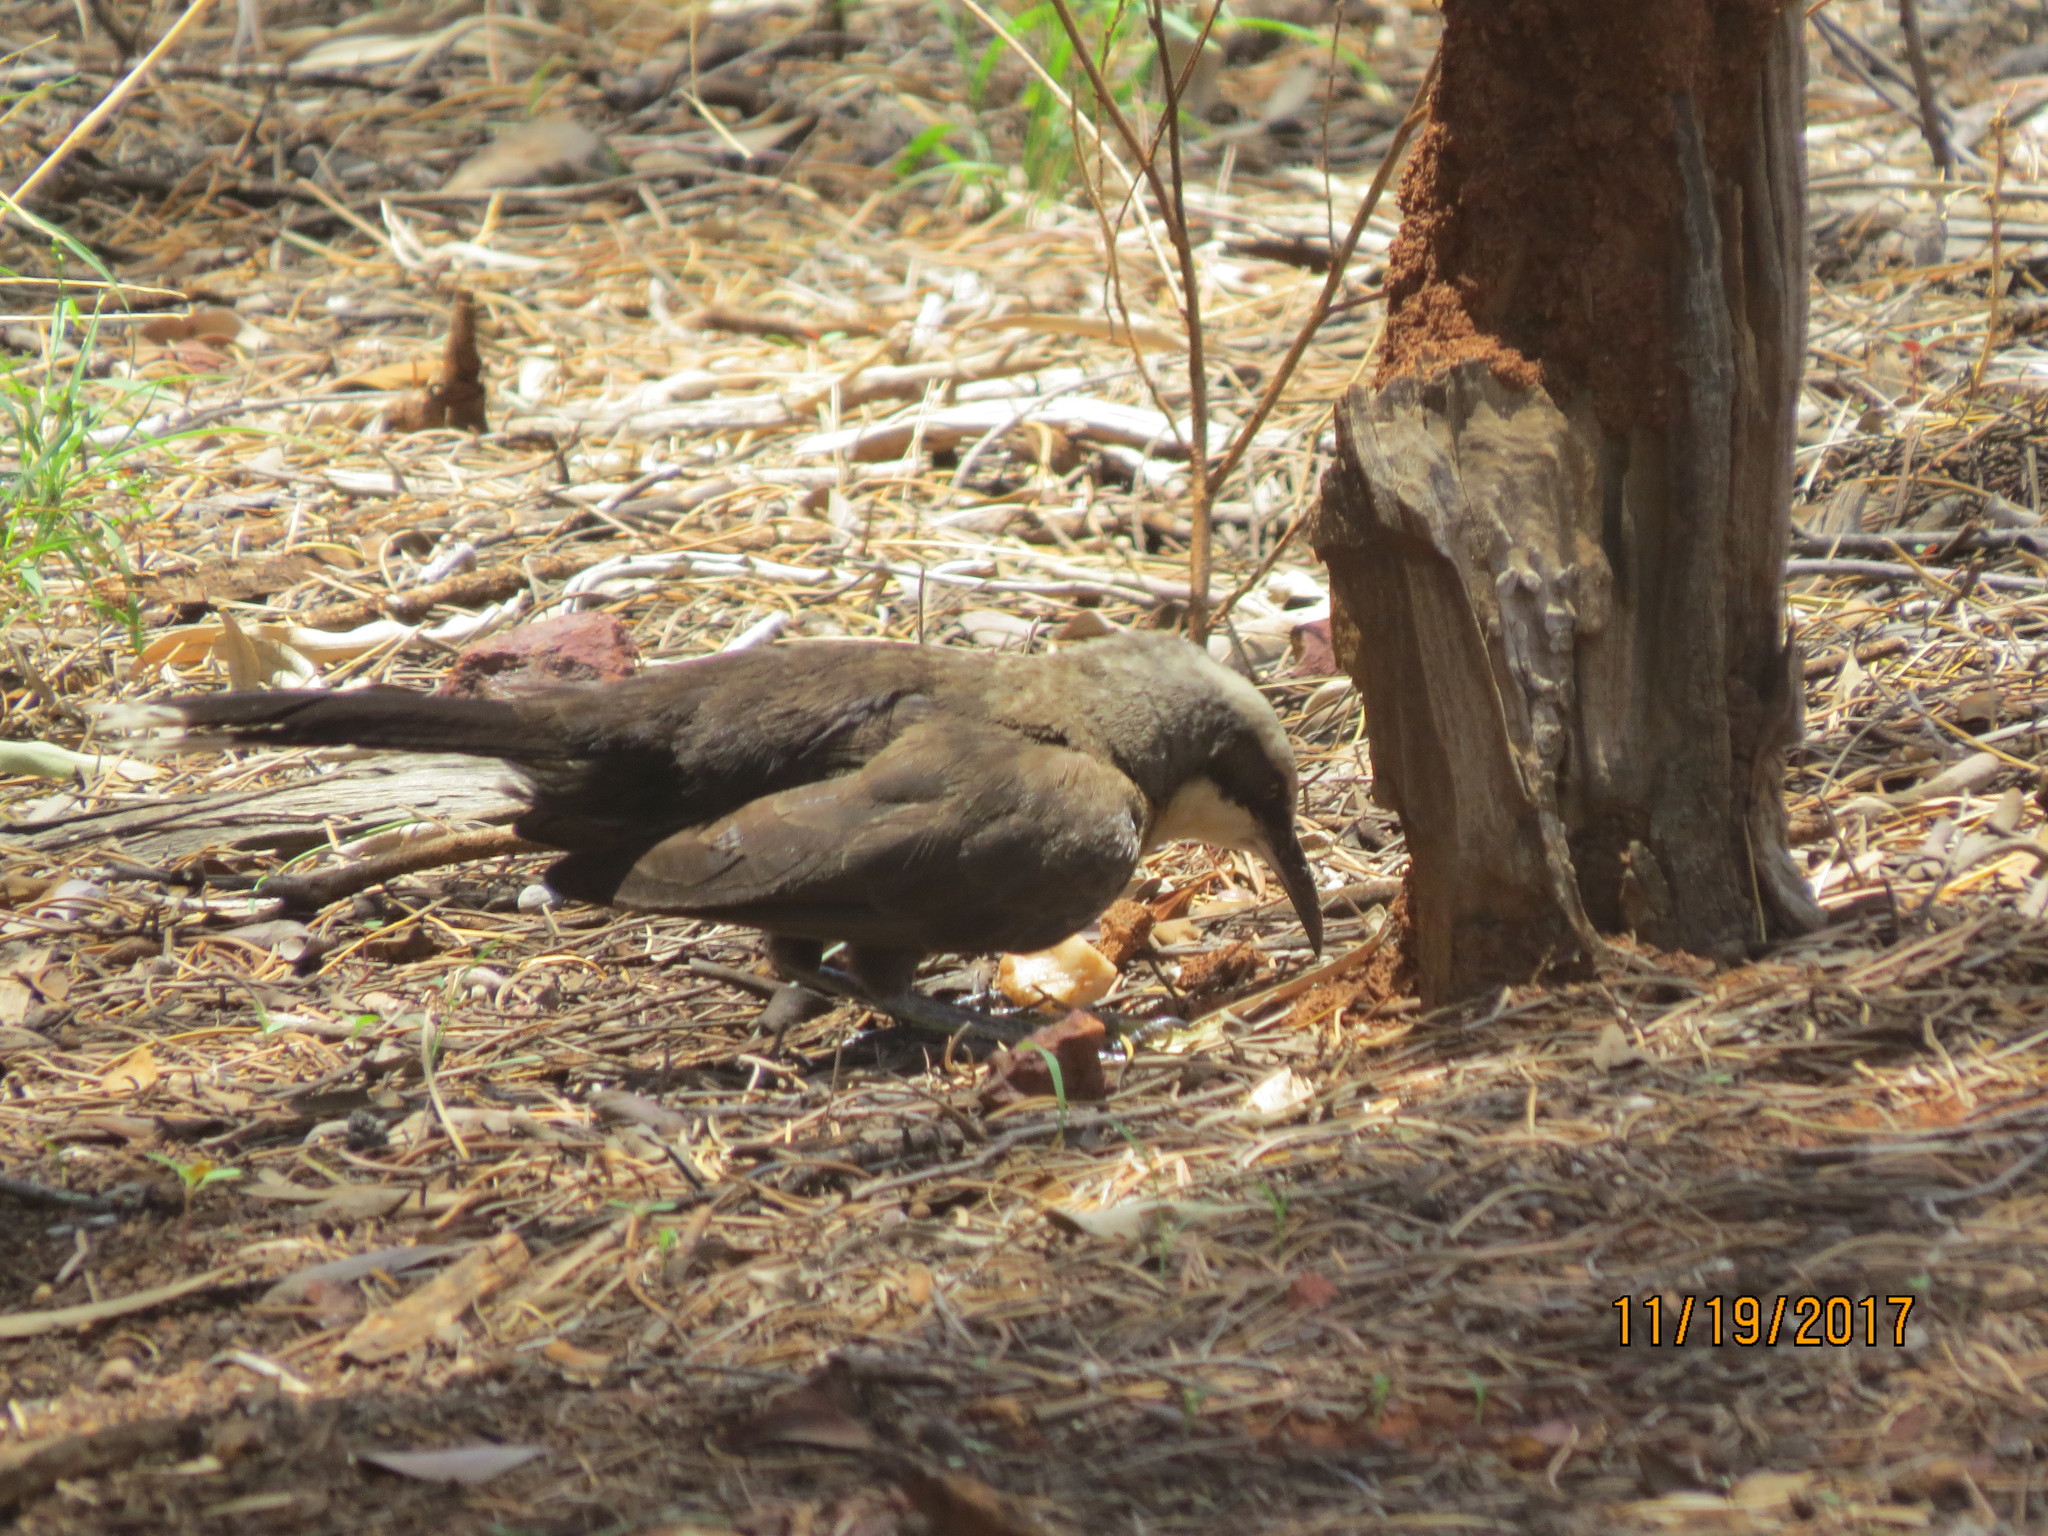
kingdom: Animalia
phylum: Chordata
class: Aves
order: Passeriformes
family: Pomatostomidae
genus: Pomatostomus
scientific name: Pomatostomus temporalis
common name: Grey-crowned babbler
